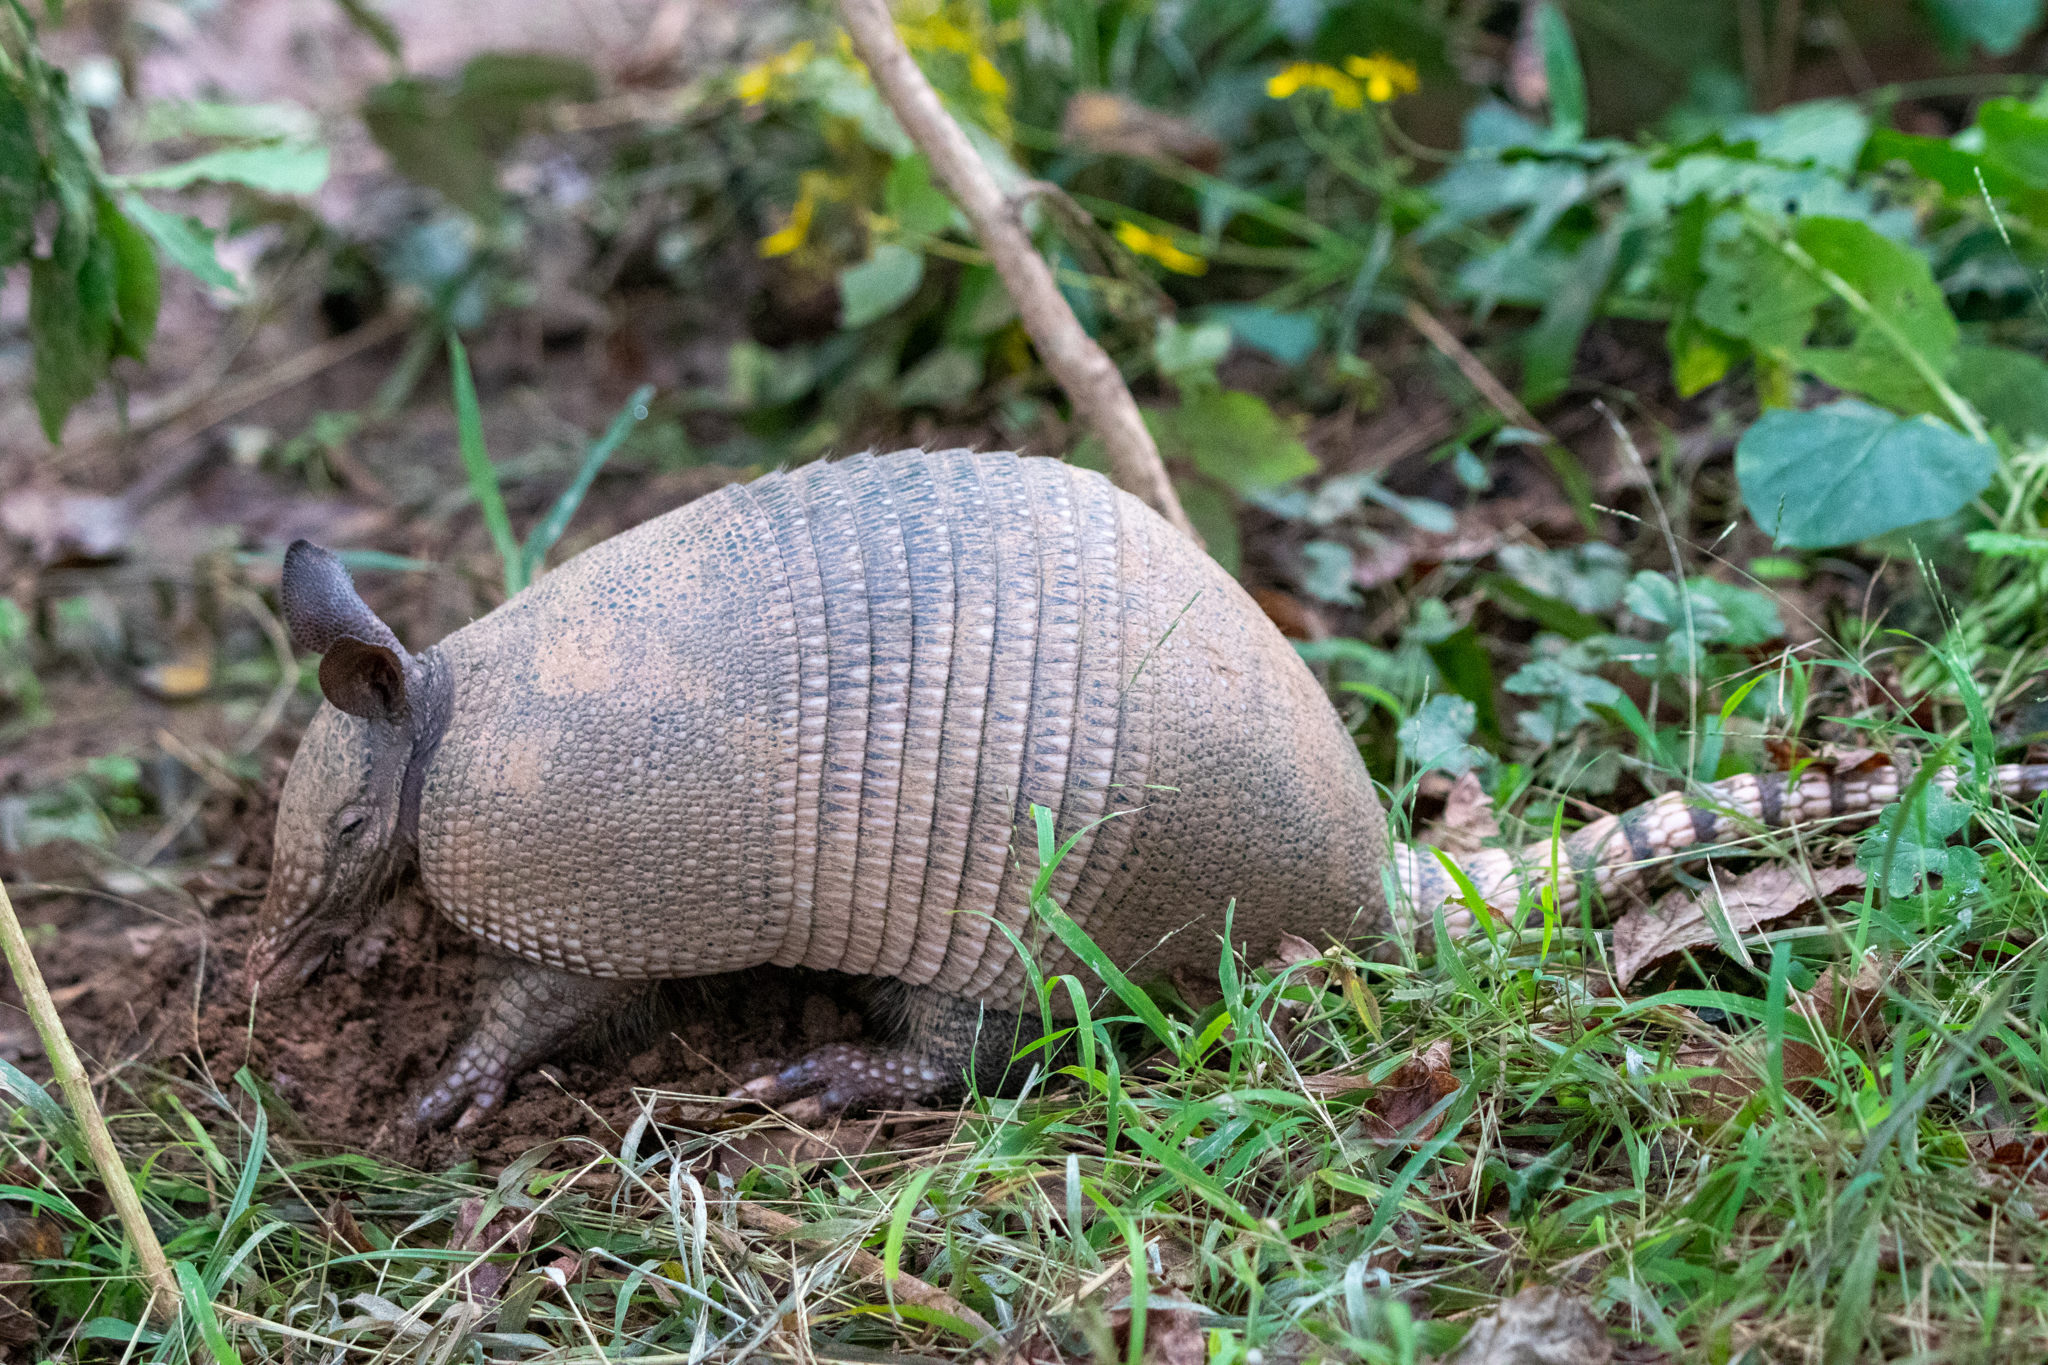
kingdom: Animalia
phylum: Chordata
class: Mammalia
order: Cingulata
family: Dasypodidae
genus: Dasypus
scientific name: Dasypus novemcinctus
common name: Nine-banded armadillo
